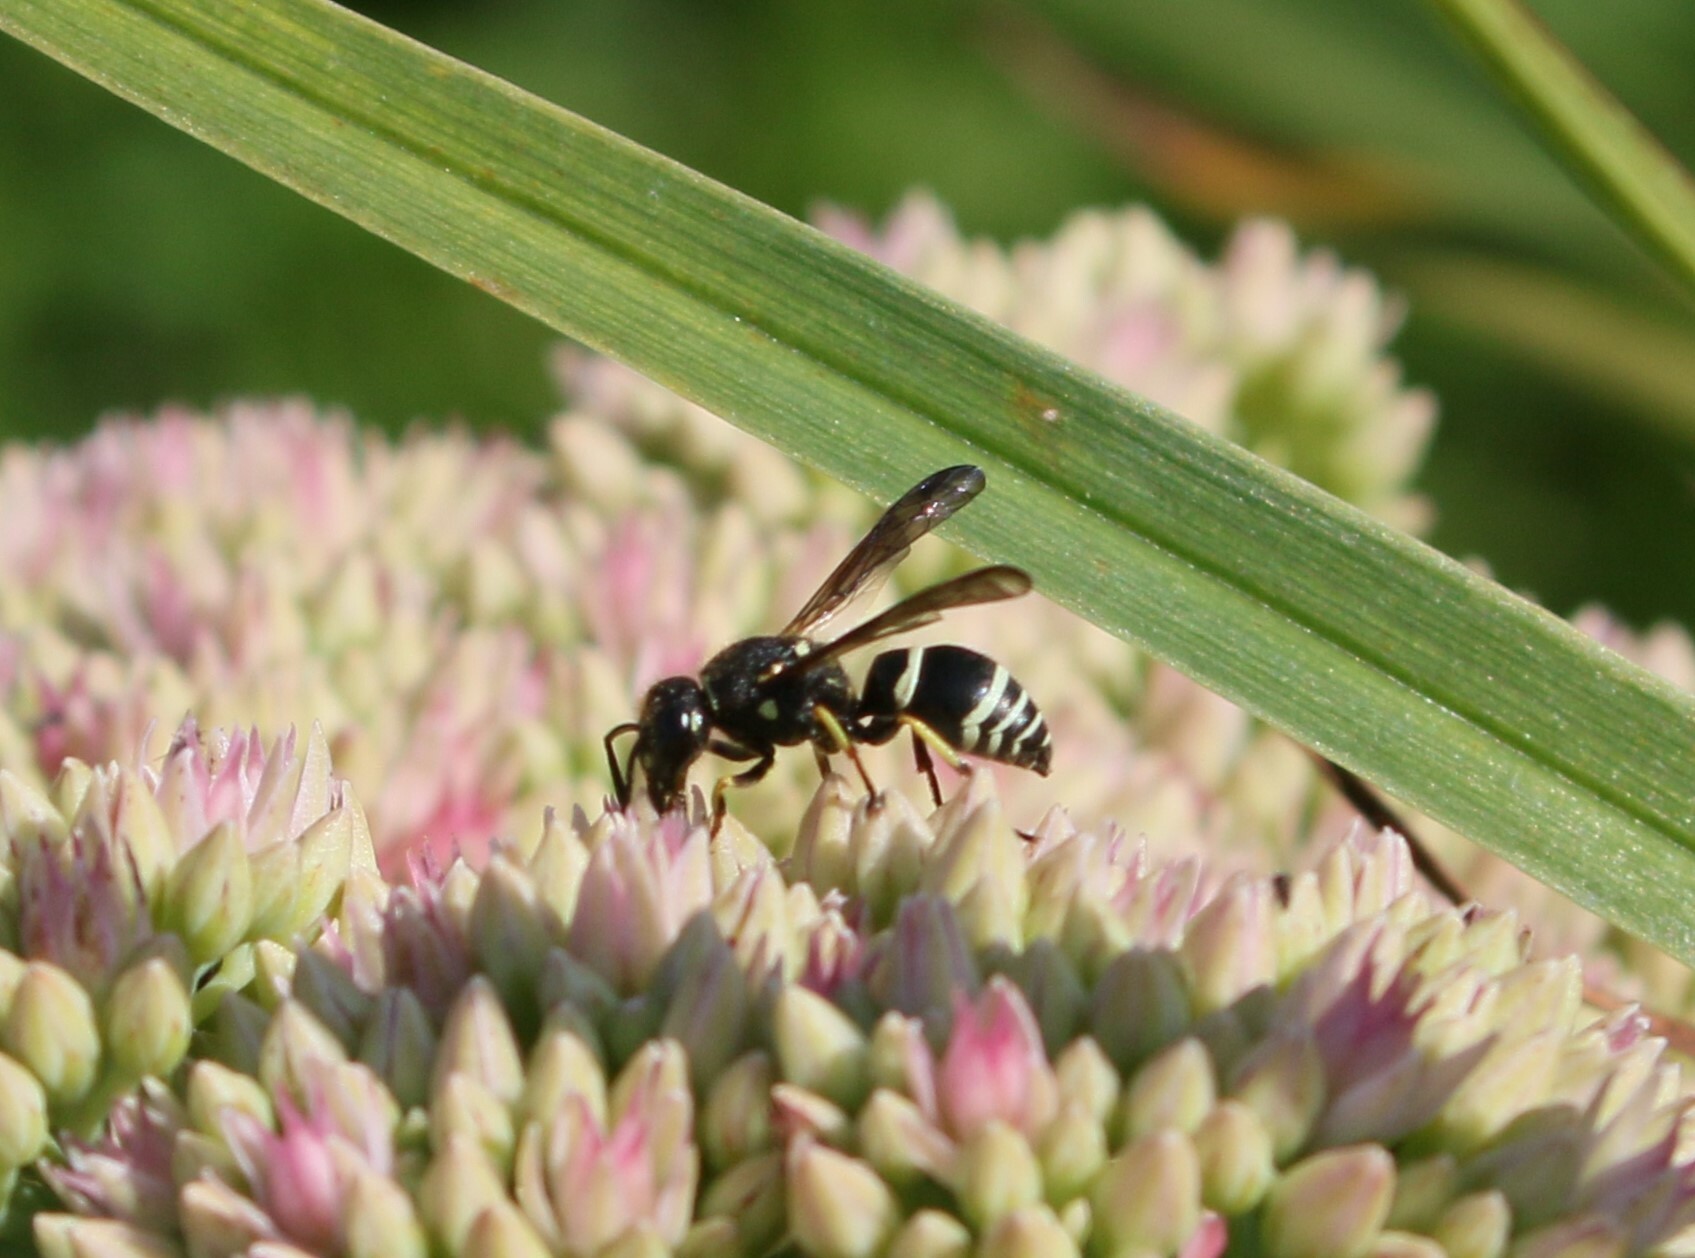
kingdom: Animalia
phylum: Arthropoda
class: Insecta
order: Hymenoptera
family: Vespidae
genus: Ancistrocerus
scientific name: Ancistrocerus catskill
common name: Vespid wasp
